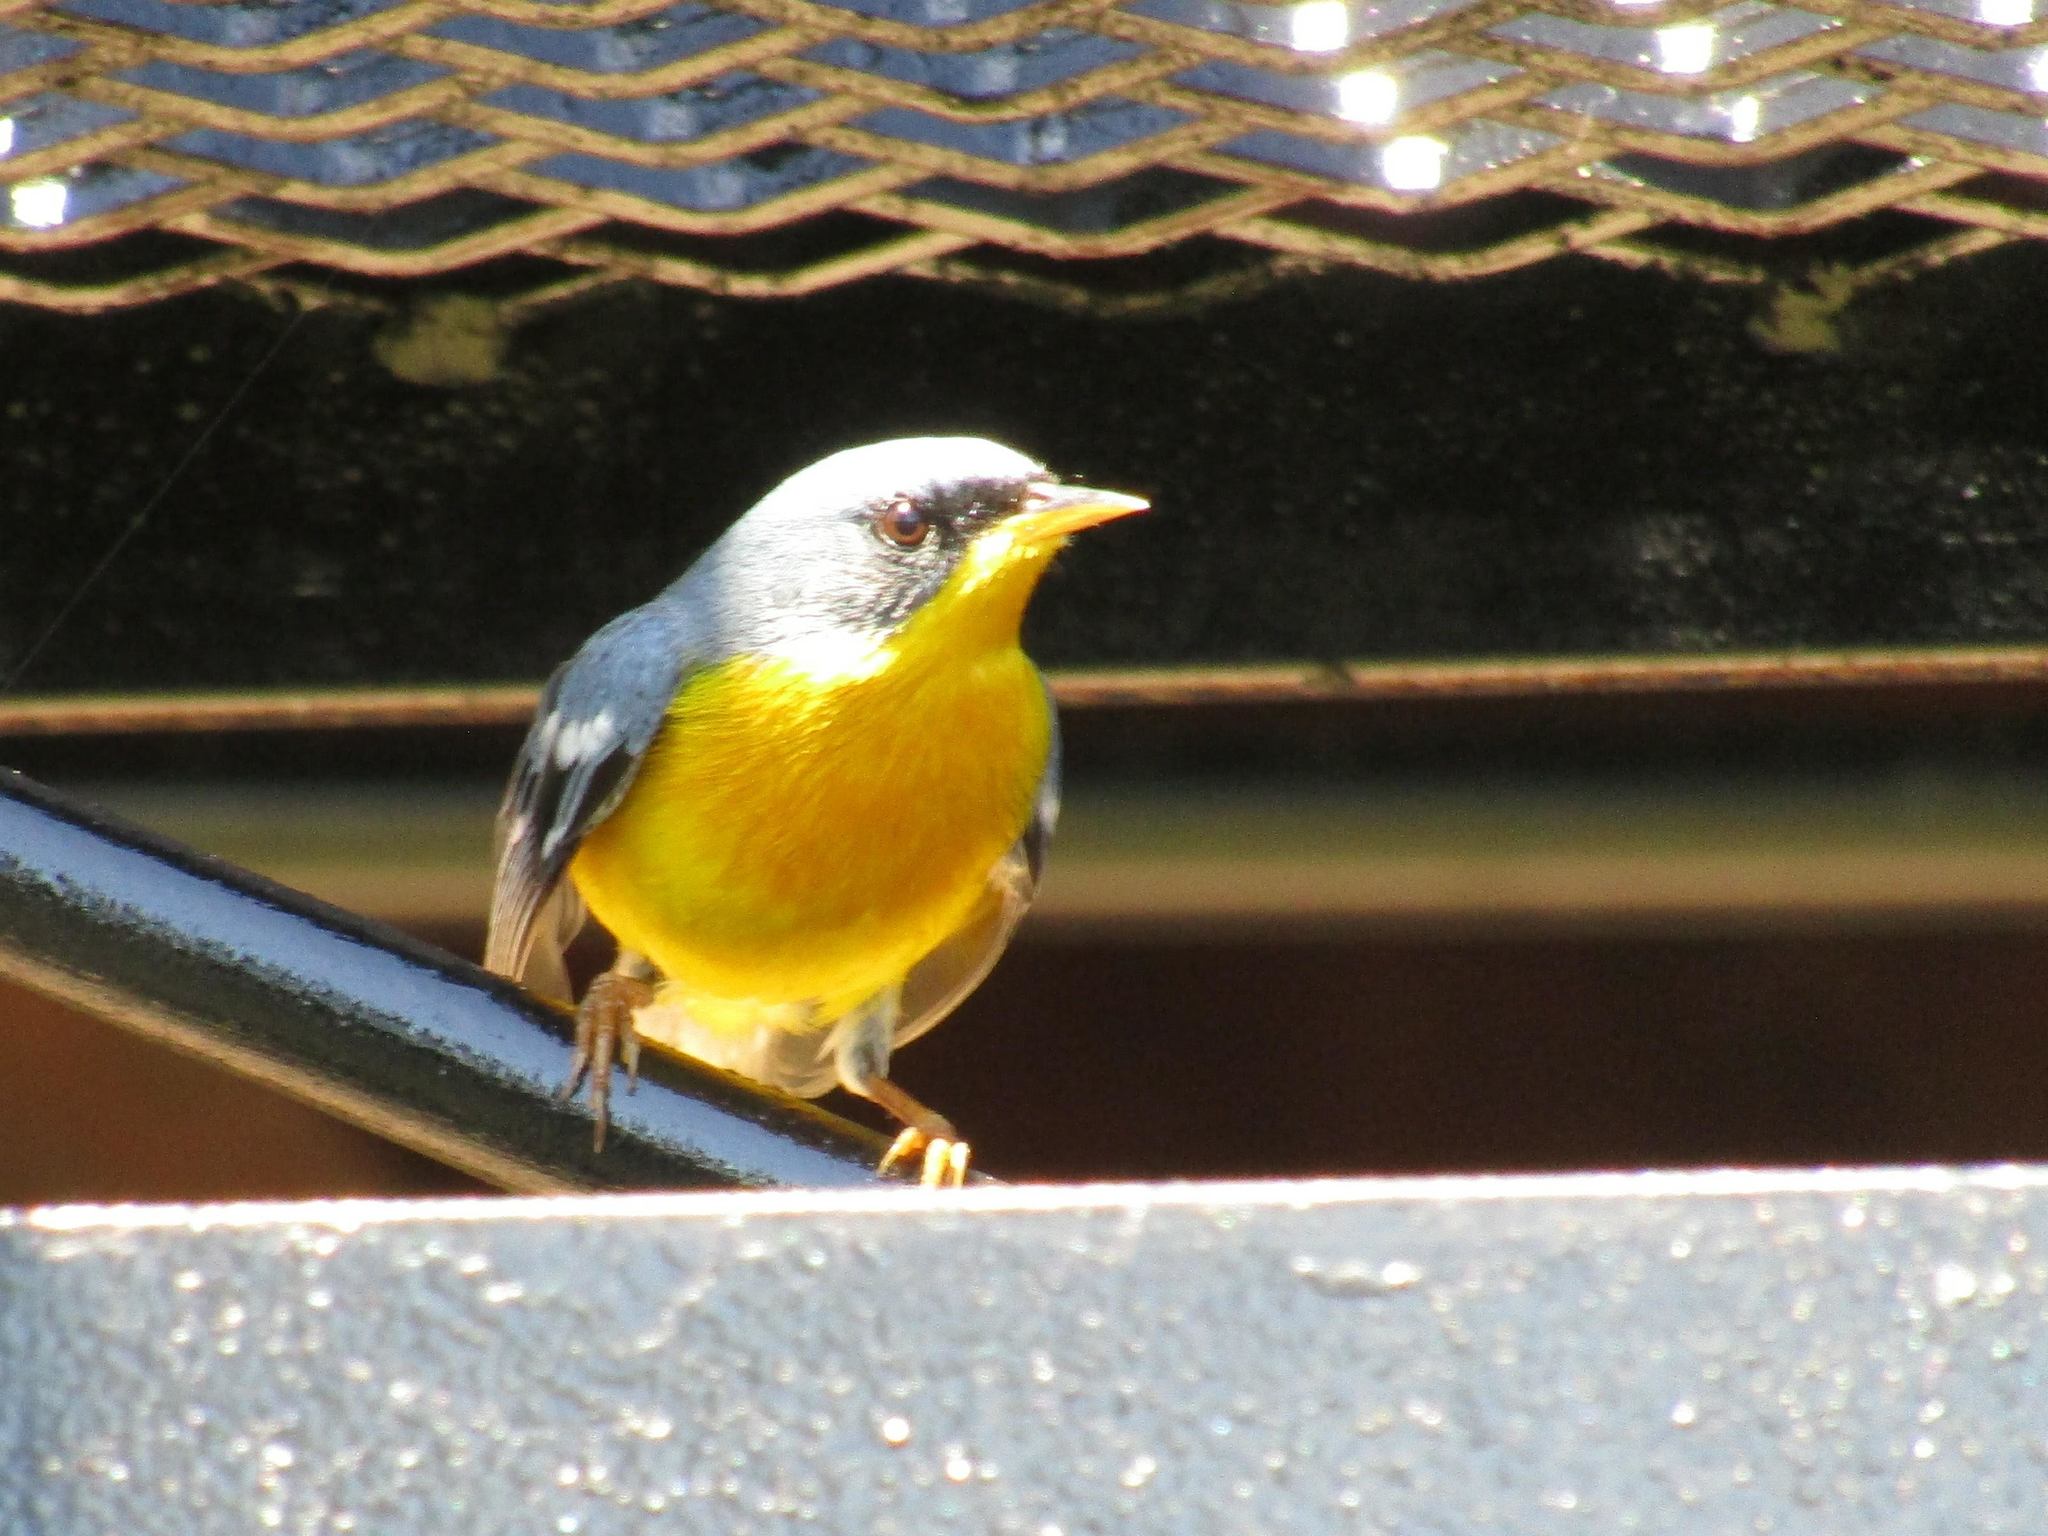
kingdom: Animalia
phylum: Chordata
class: Aves
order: Passeriformes
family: Parulidae
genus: Setophaga
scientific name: Setophaga pitiayumi
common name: Tropical parula
